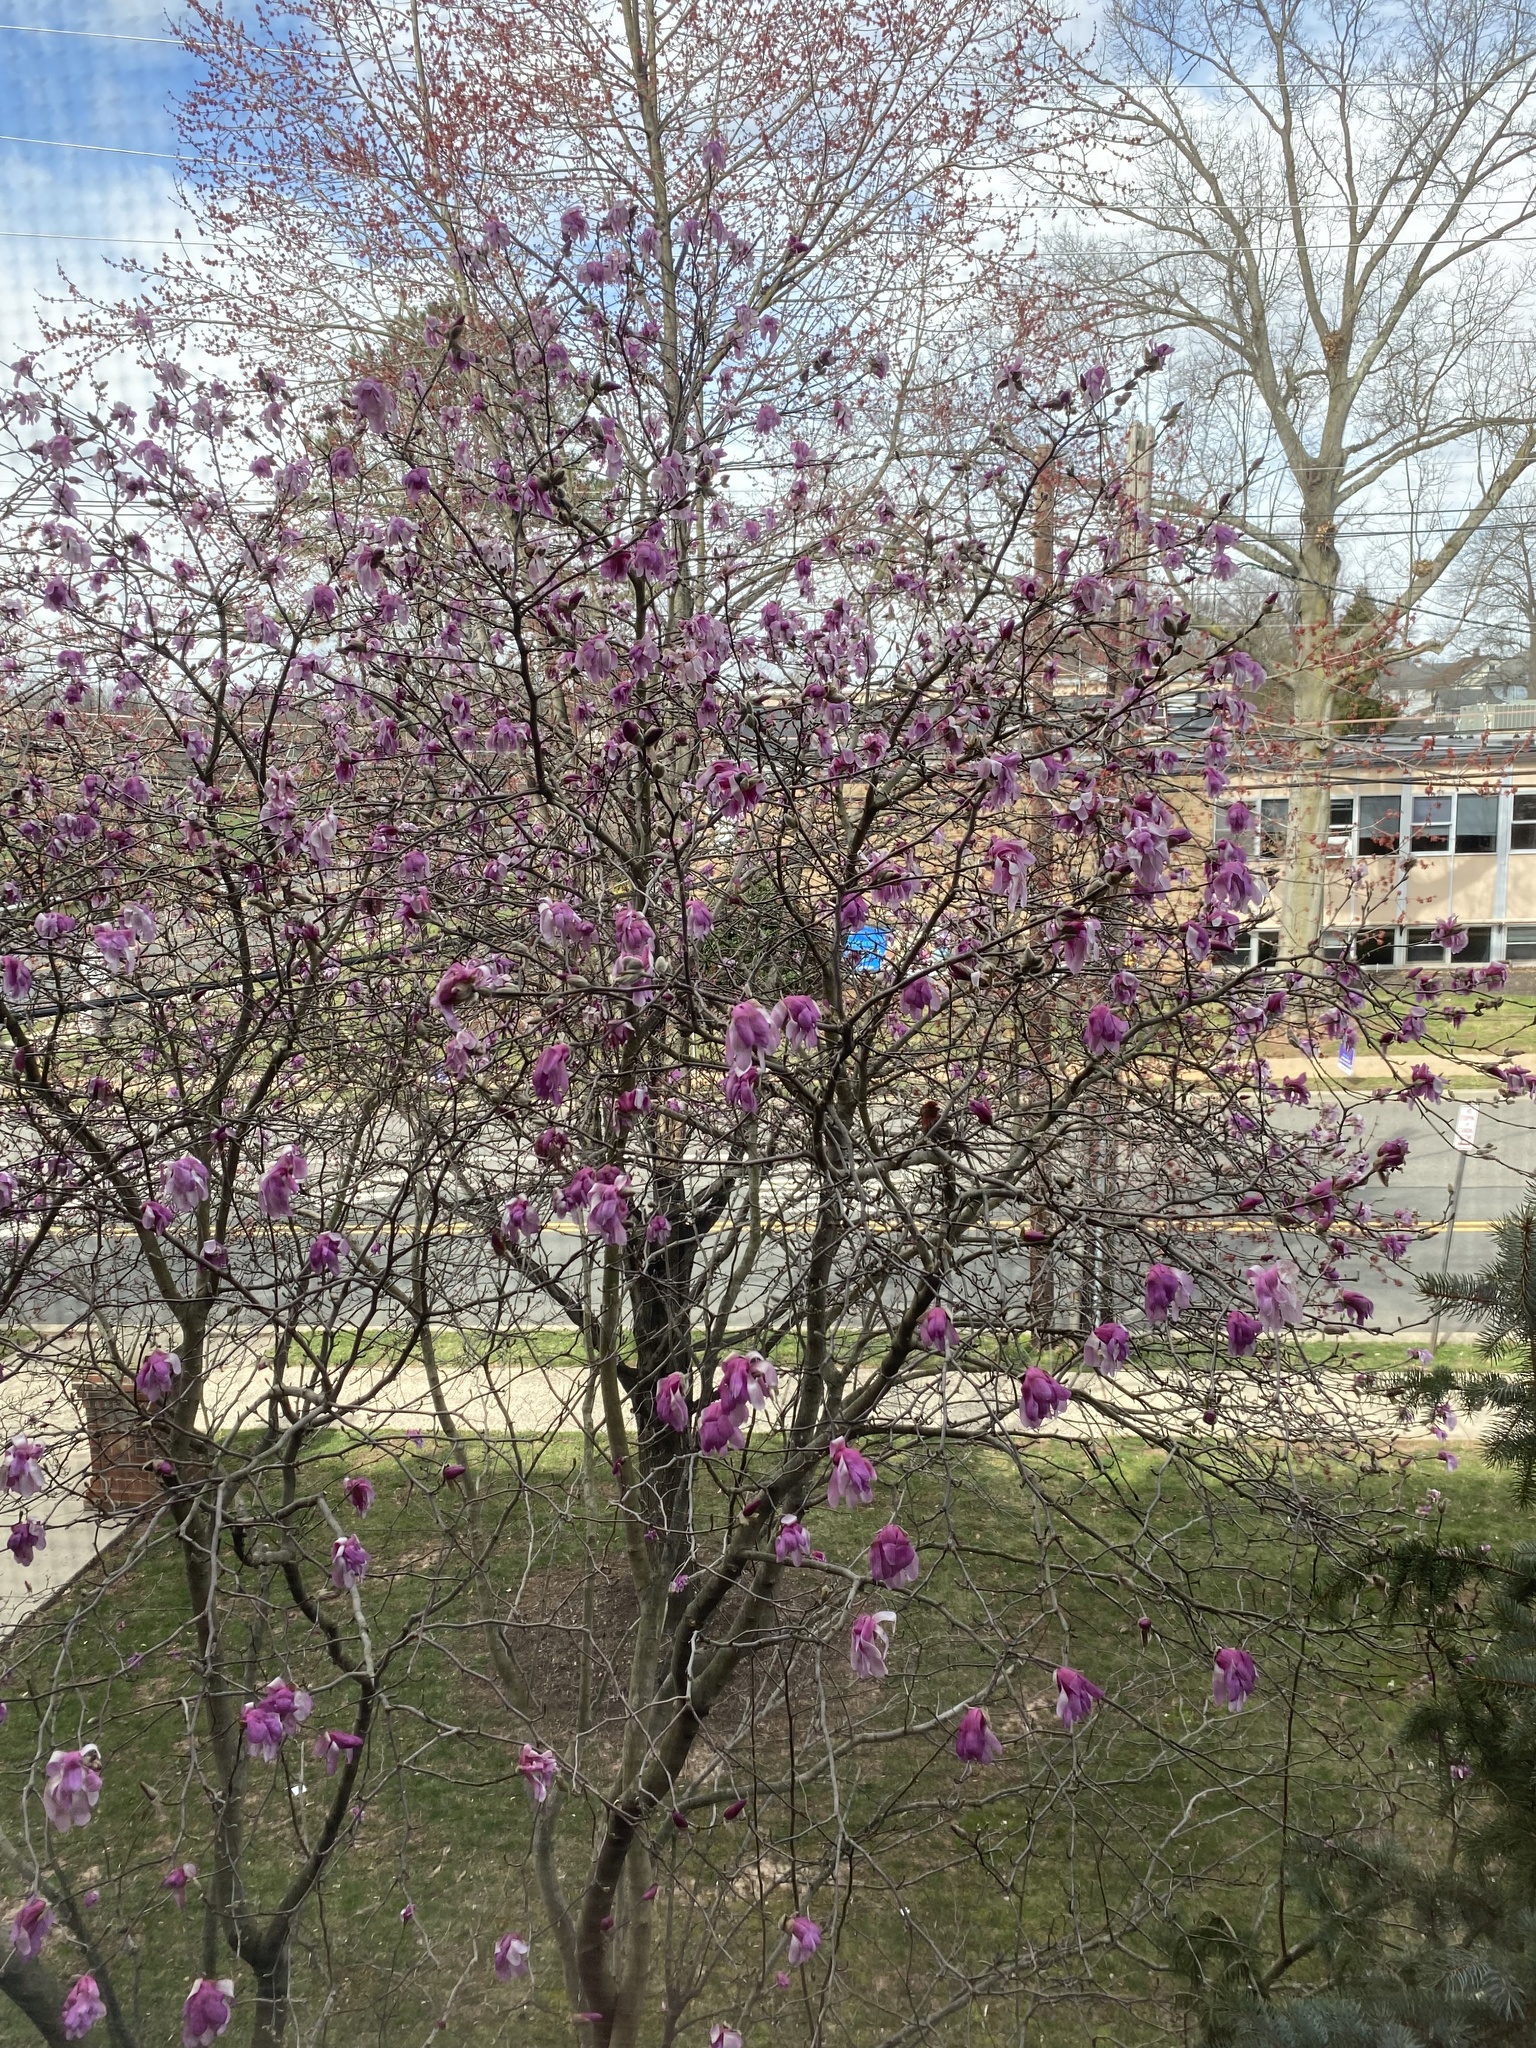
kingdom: Animalia
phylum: Chordata
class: Aves
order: Passeriformes
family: Fringillidae
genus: Haemorhous
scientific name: Haemorhous mexicanus
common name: House finch
